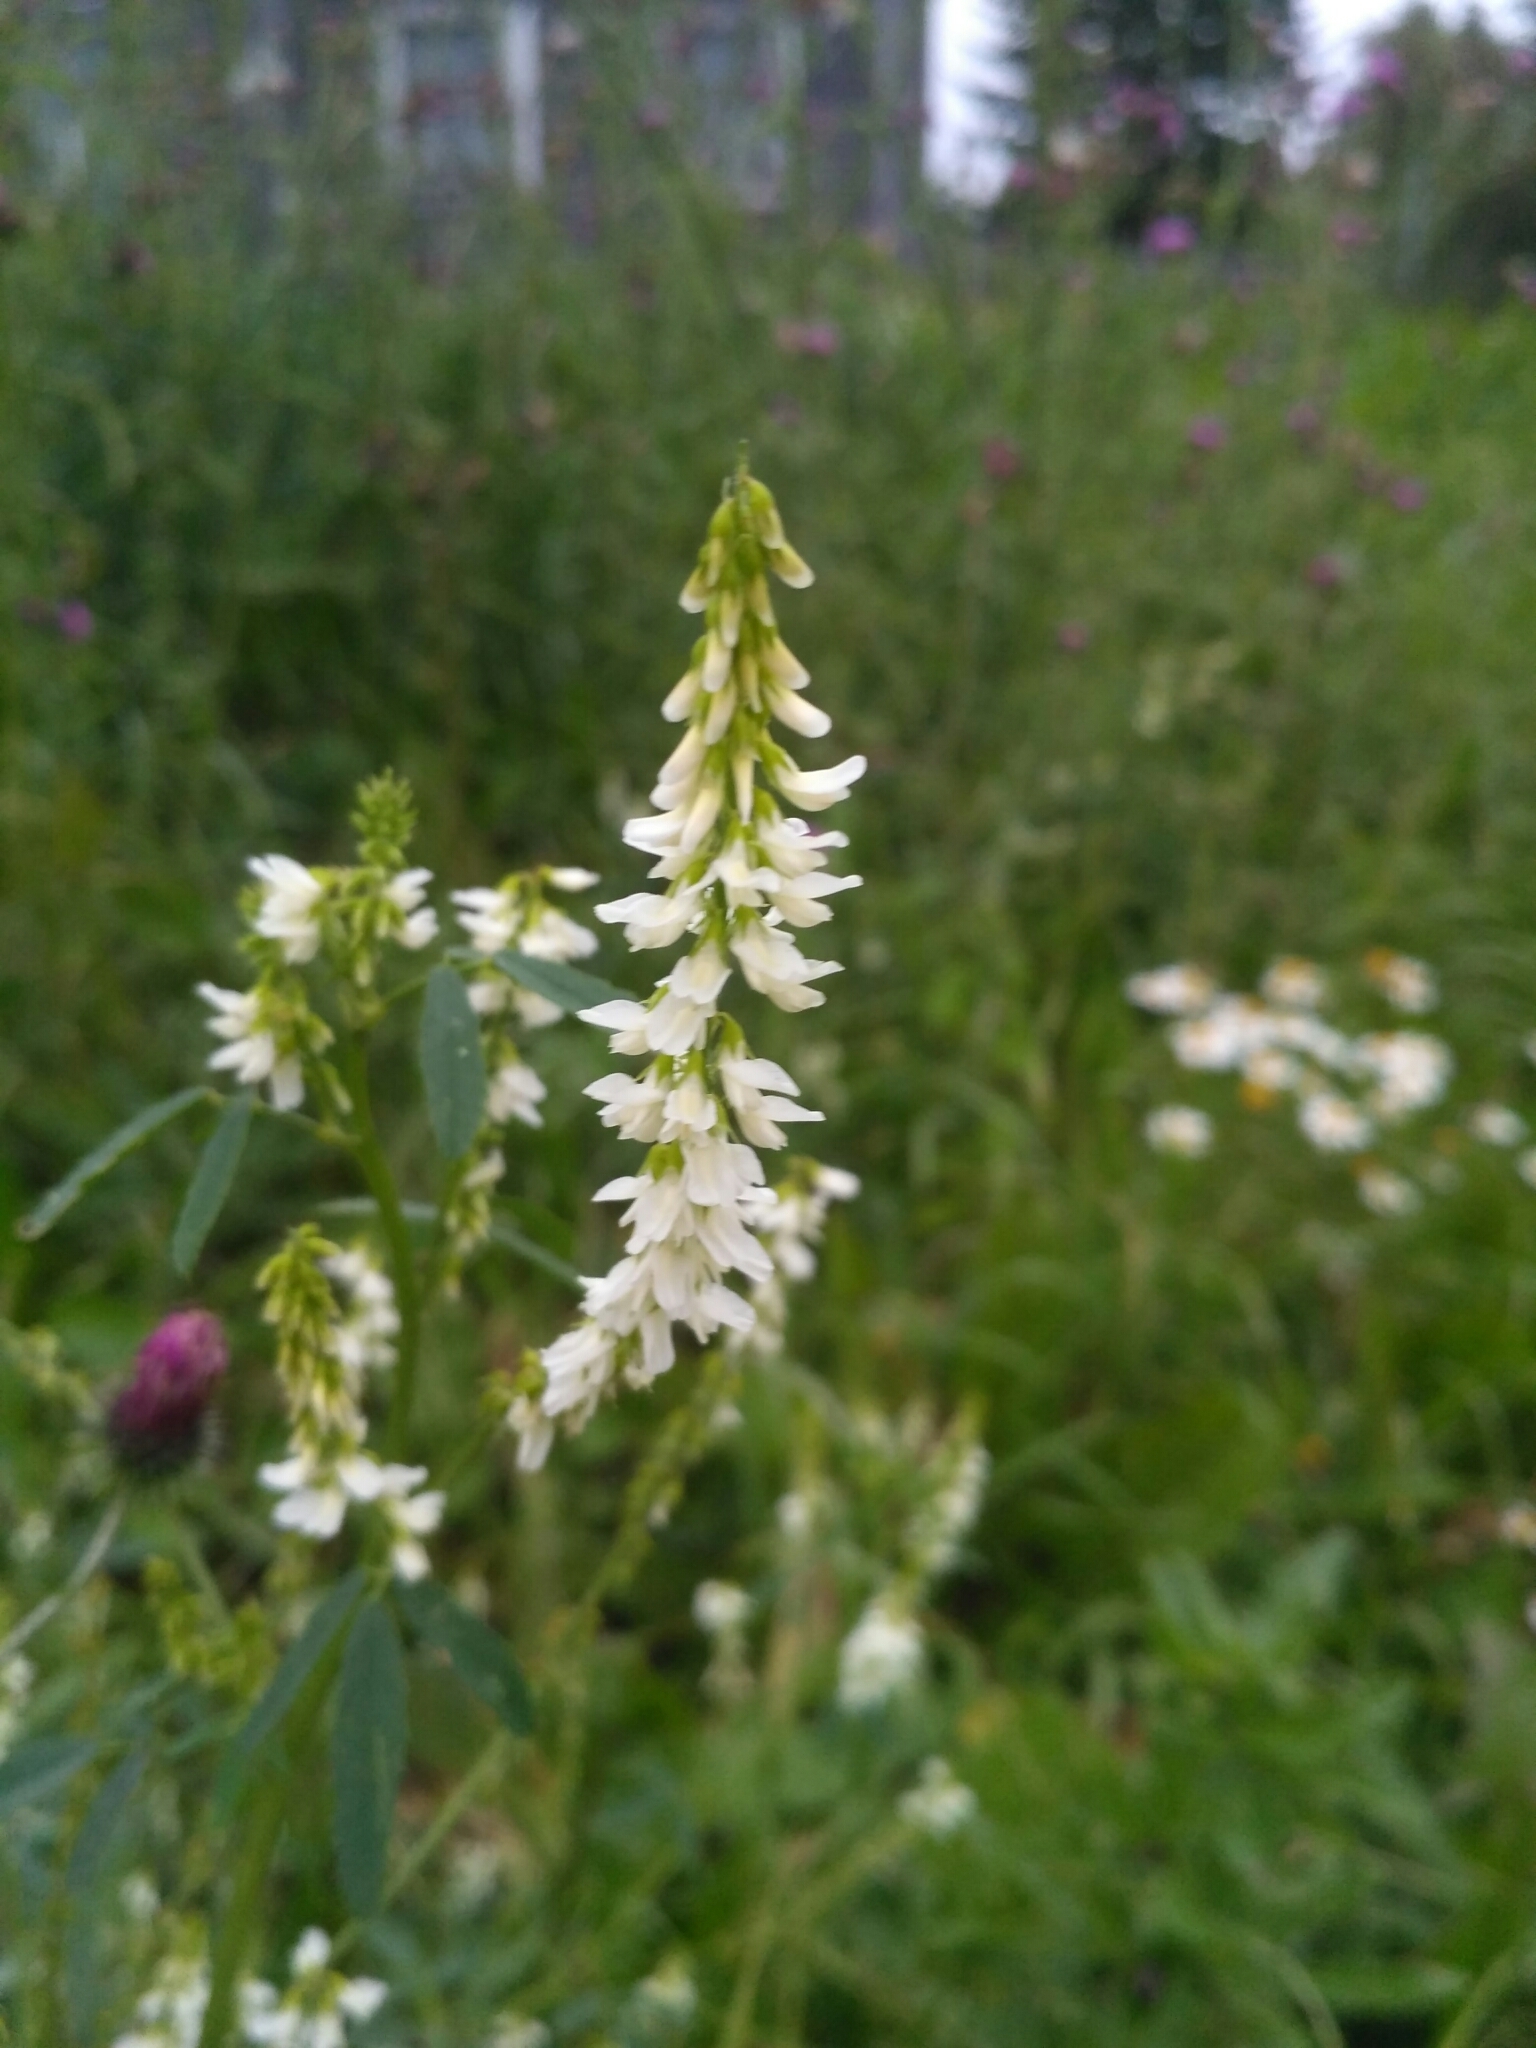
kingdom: Plantae
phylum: Tracheophyta
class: Magnoliopsida
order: Fabales
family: Fabaceae
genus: Melilotus
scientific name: Melilotus albus
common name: White melilot
